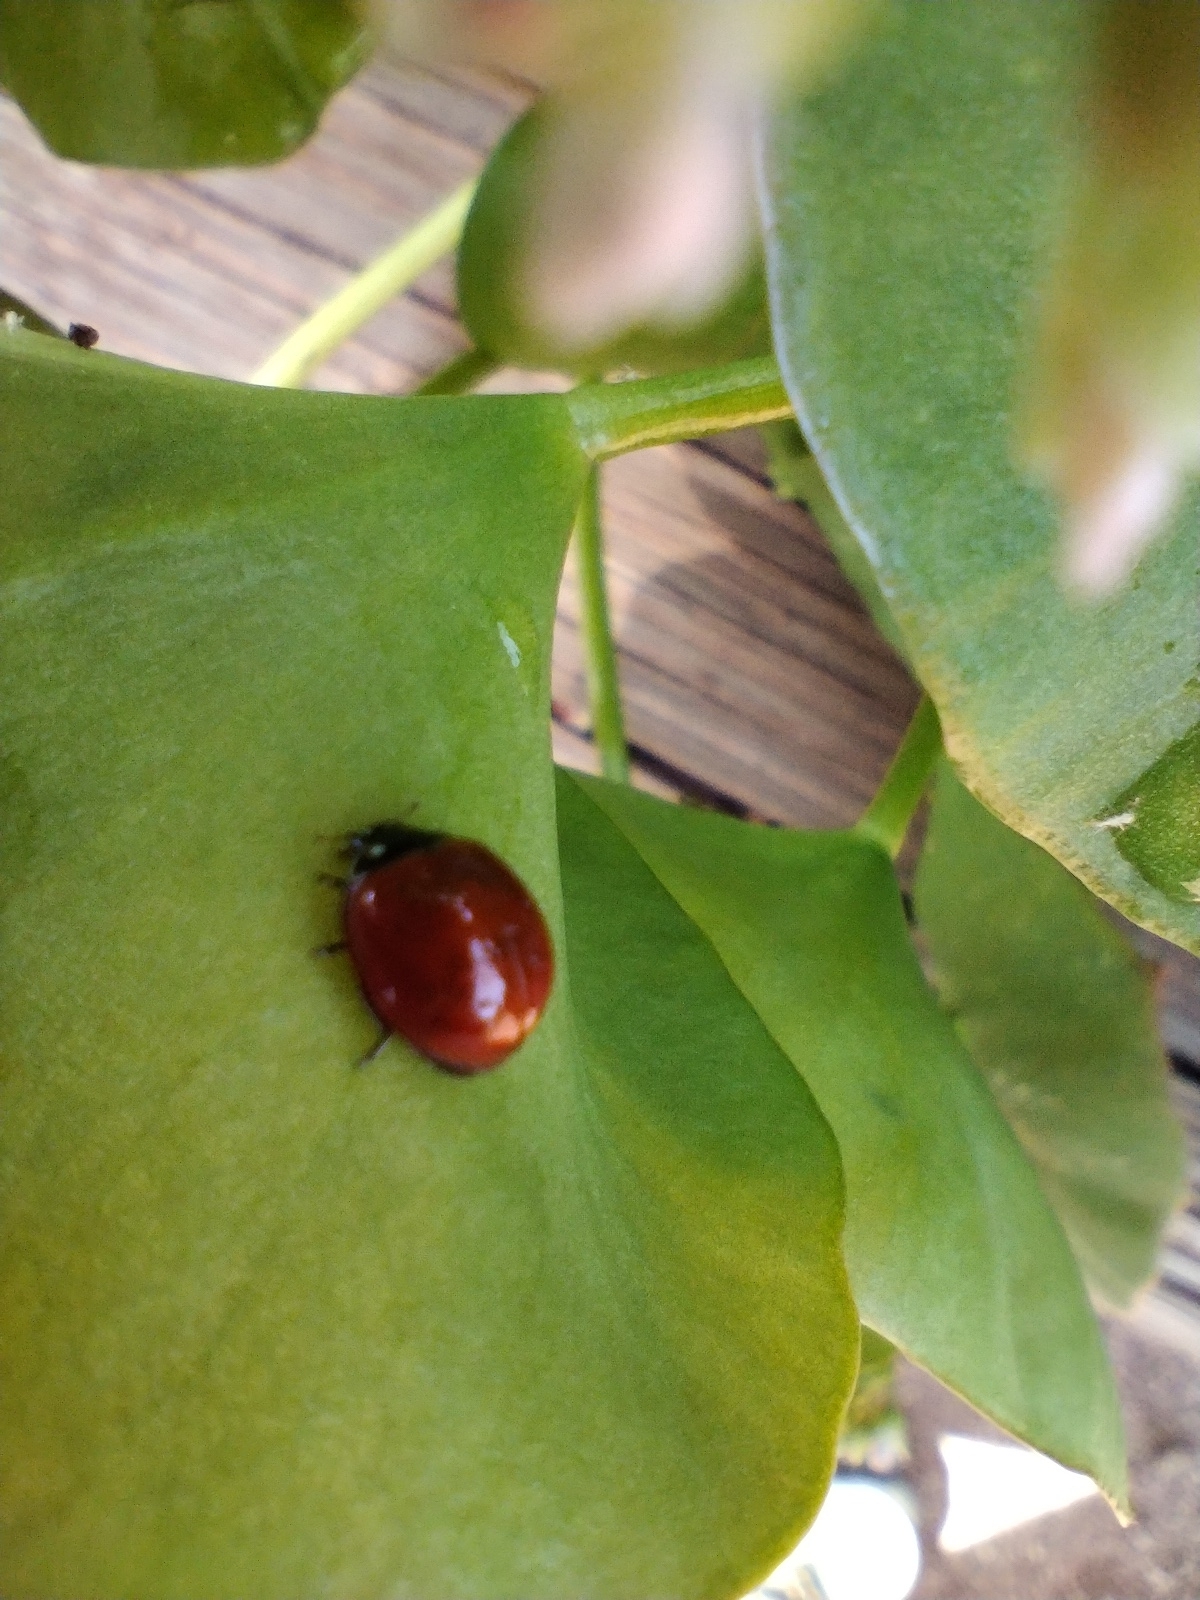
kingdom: Animalia
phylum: Arthropoda
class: Insecta
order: Coleoptera
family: Coccinellidae
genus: Cycloneda
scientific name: Cycloneda sanguinea
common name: Ladybird beetle
